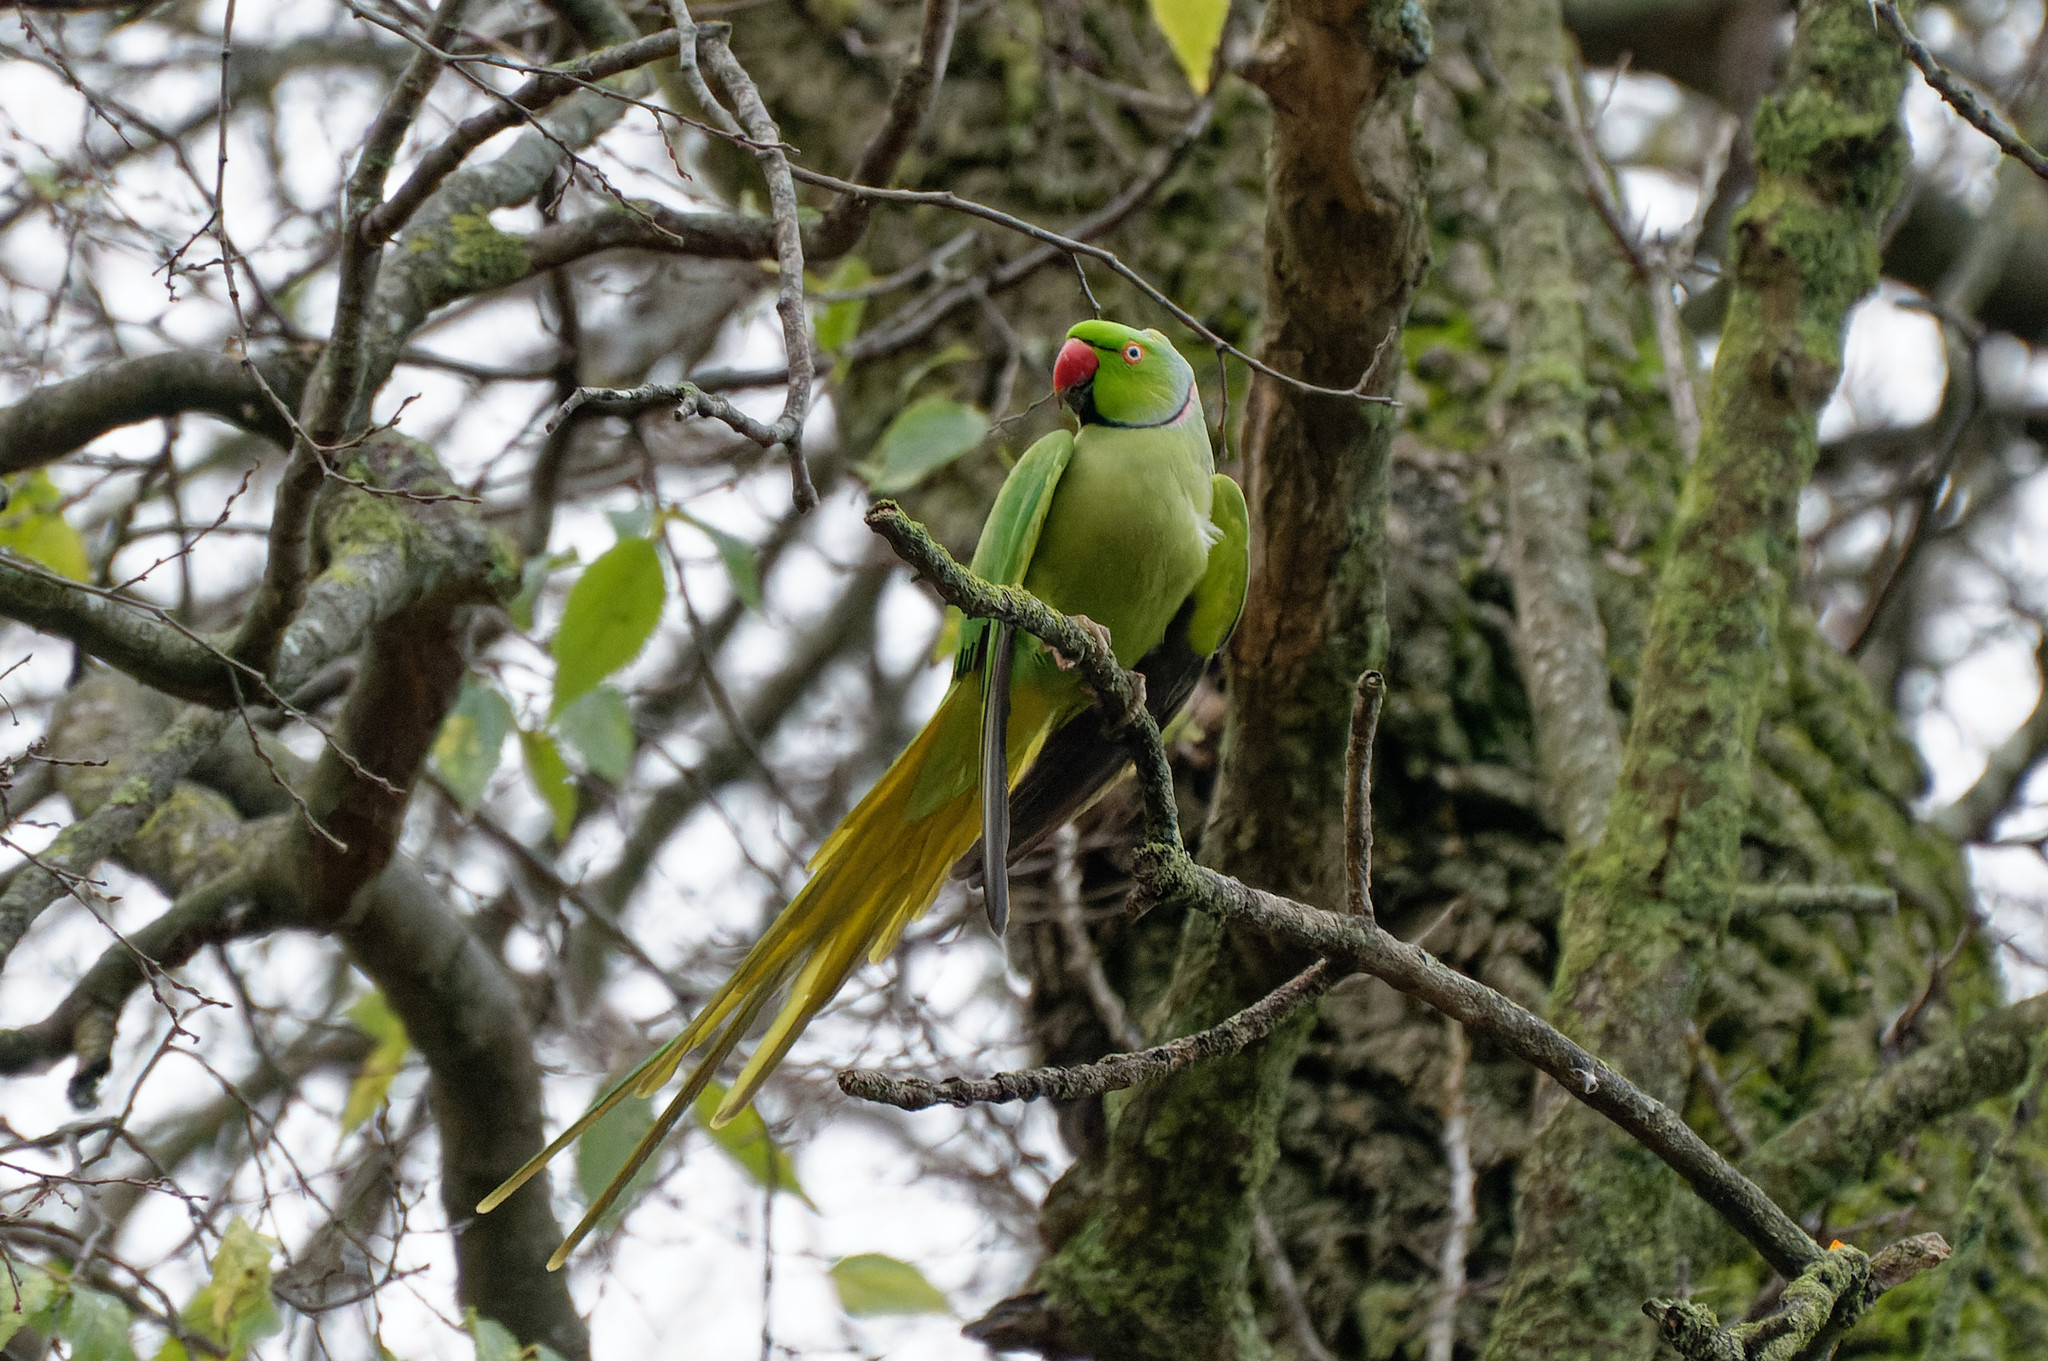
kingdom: Animalia
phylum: Chordata
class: Aves
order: Psittaciformes
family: Psittacidae
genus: Psittacula
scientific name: Psittacula krameri
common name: Rose-ringed parakeet
